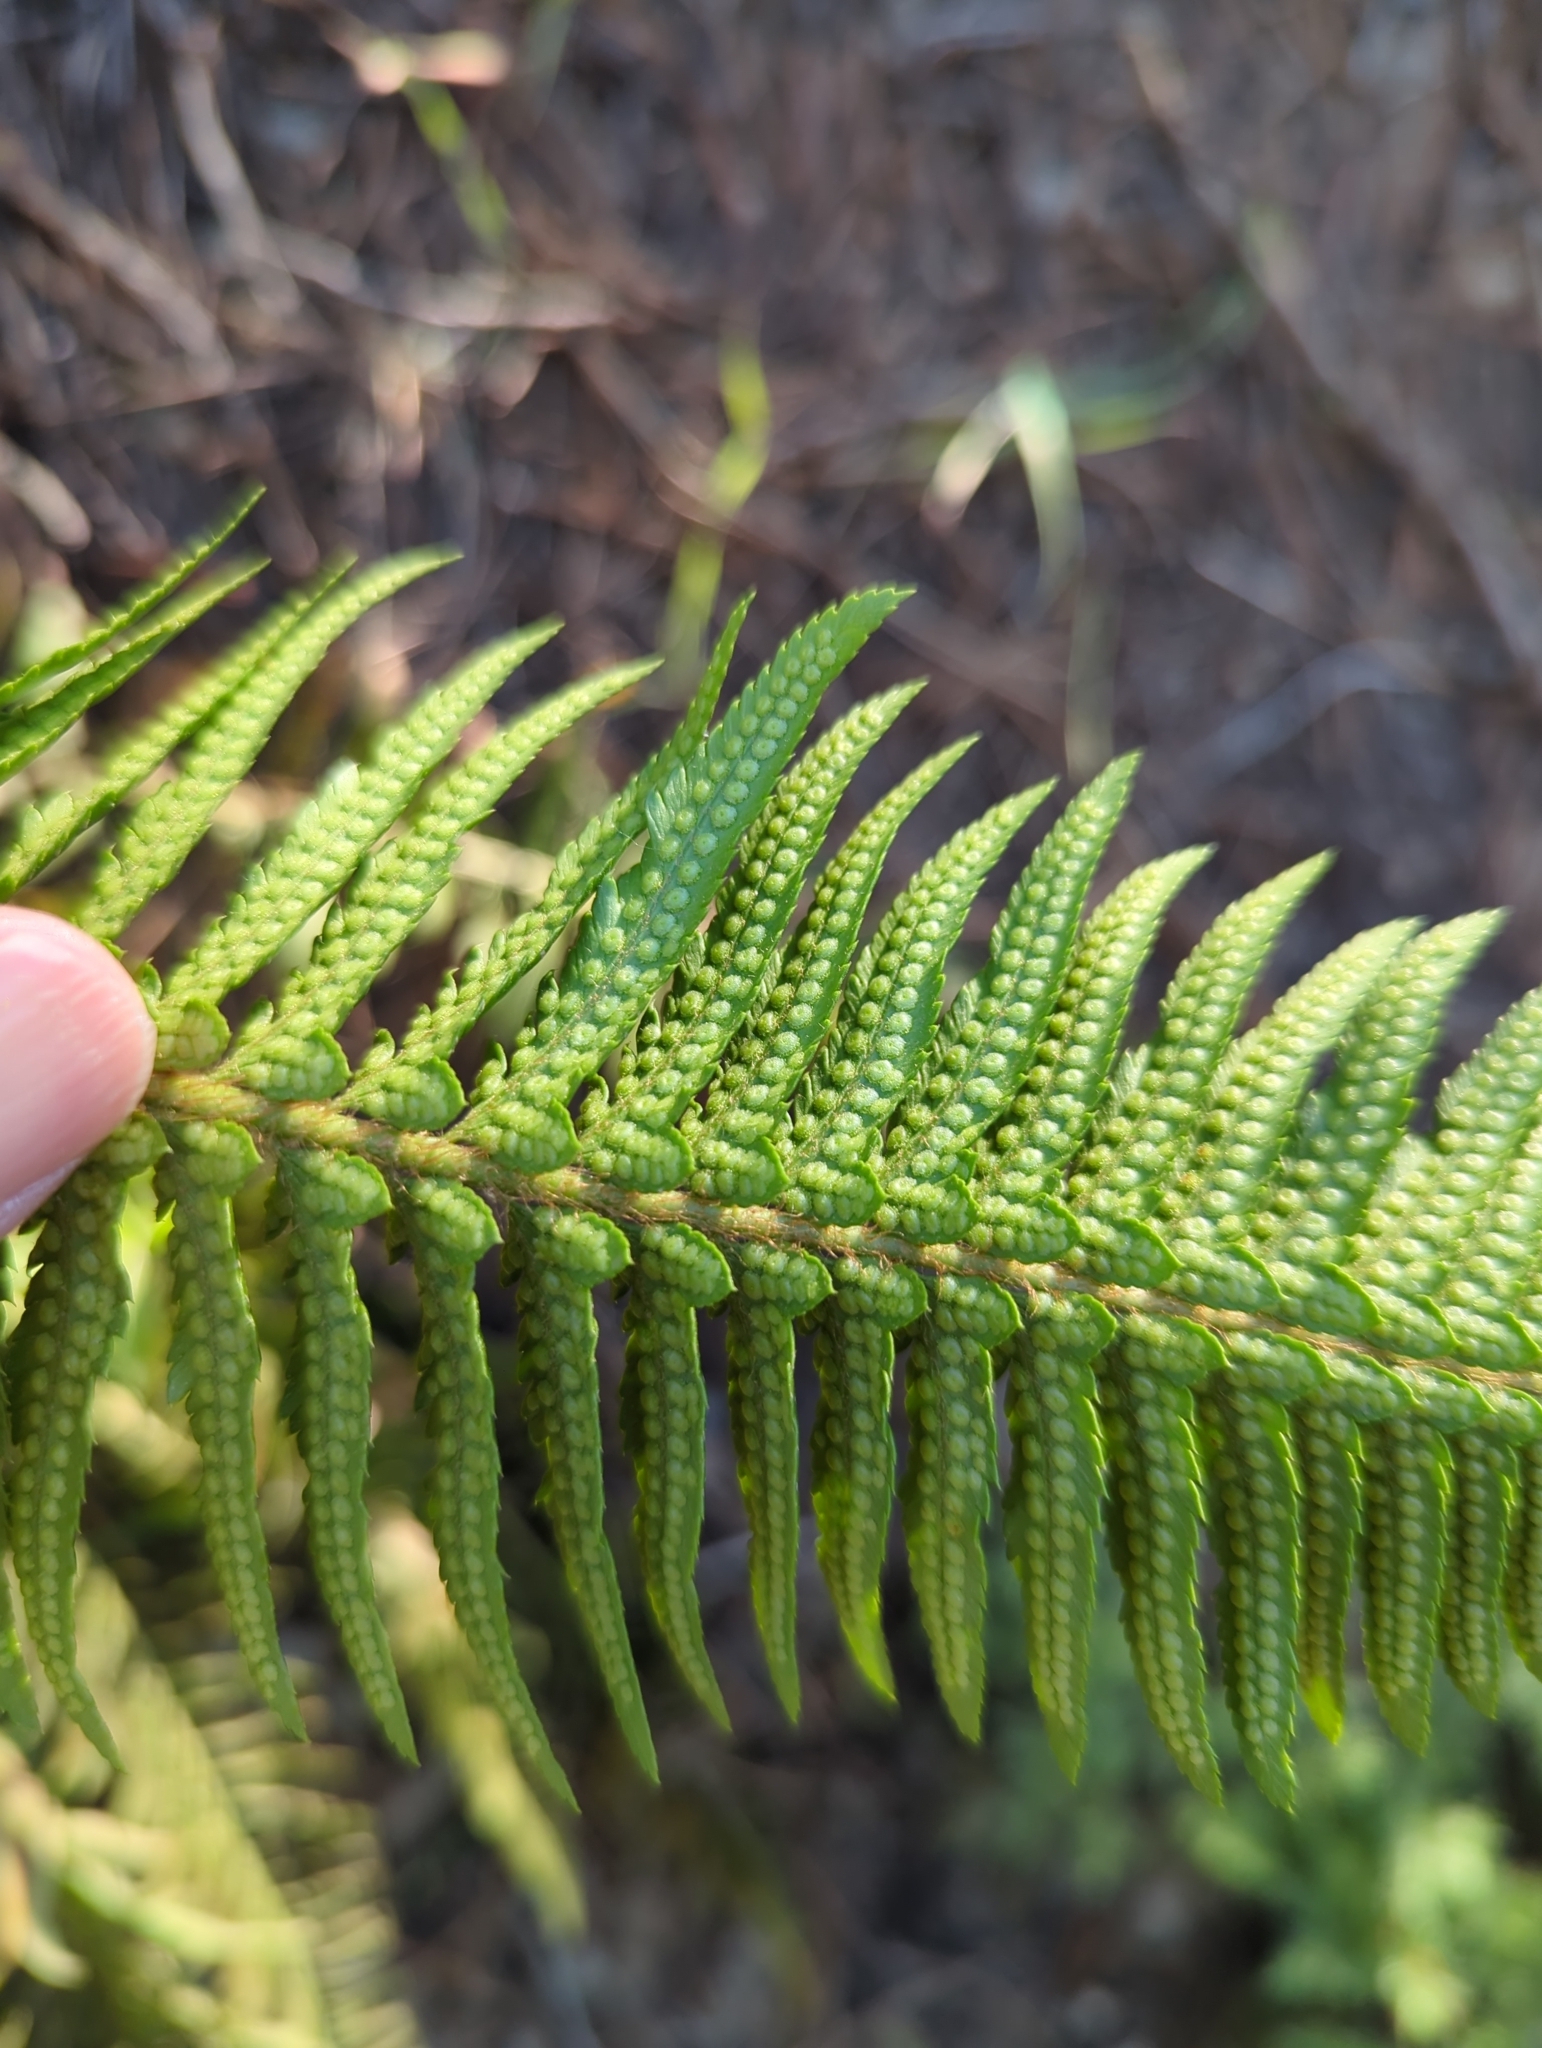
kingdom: Plantae
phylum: Tracheophyta
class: Polypodiopsida
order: Polypodiales
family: Dryopteridaceae
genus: Polystichum
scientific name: Polystichum
